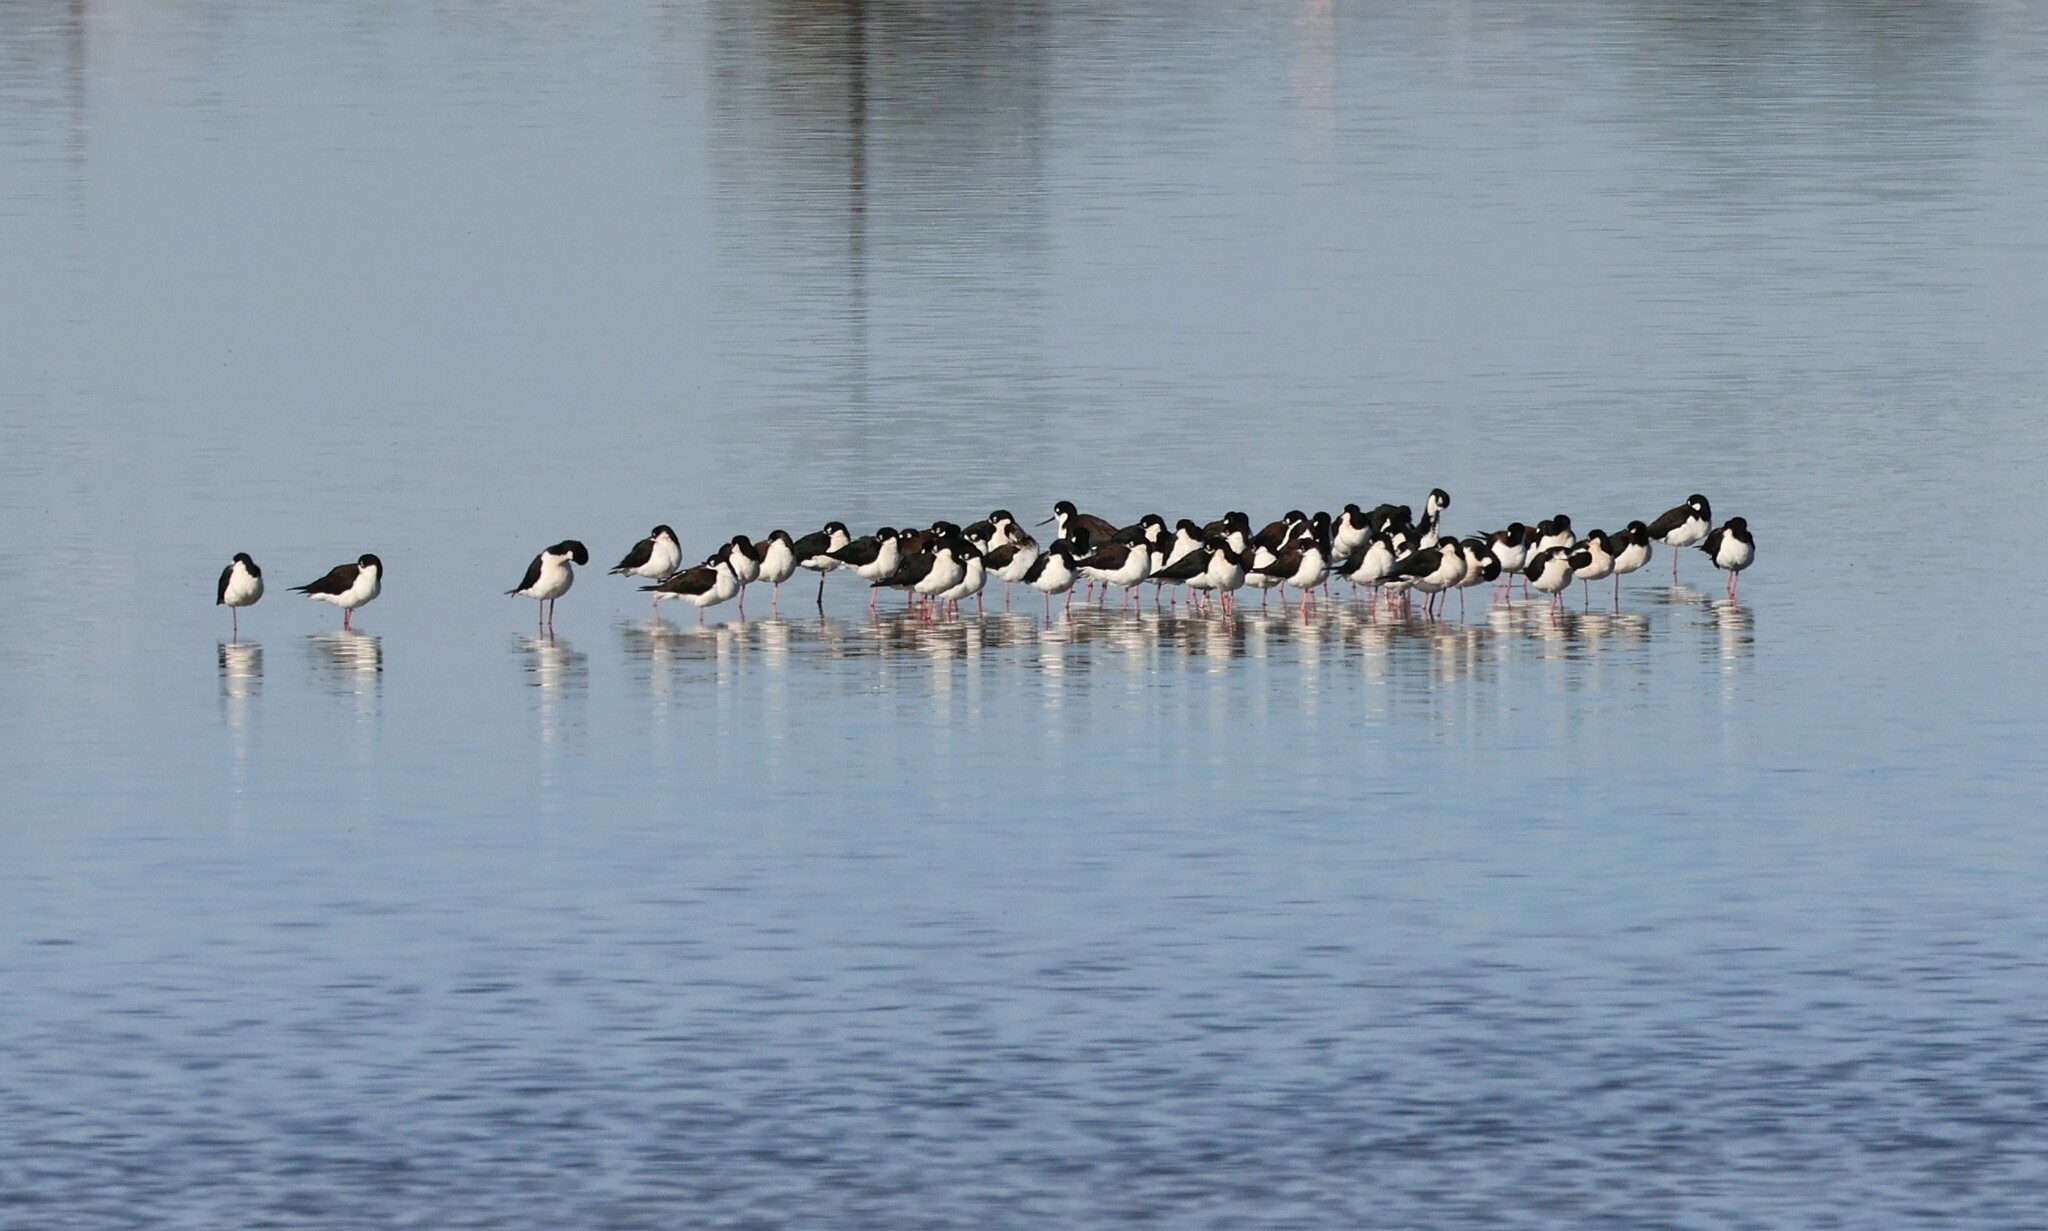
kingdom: Animalia
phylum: Chordata
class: Aves
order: Charadriiformes
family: Recurvirostridae
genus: Himantopus
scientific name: Himantopus mexicanus
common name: Black-necked stilt
